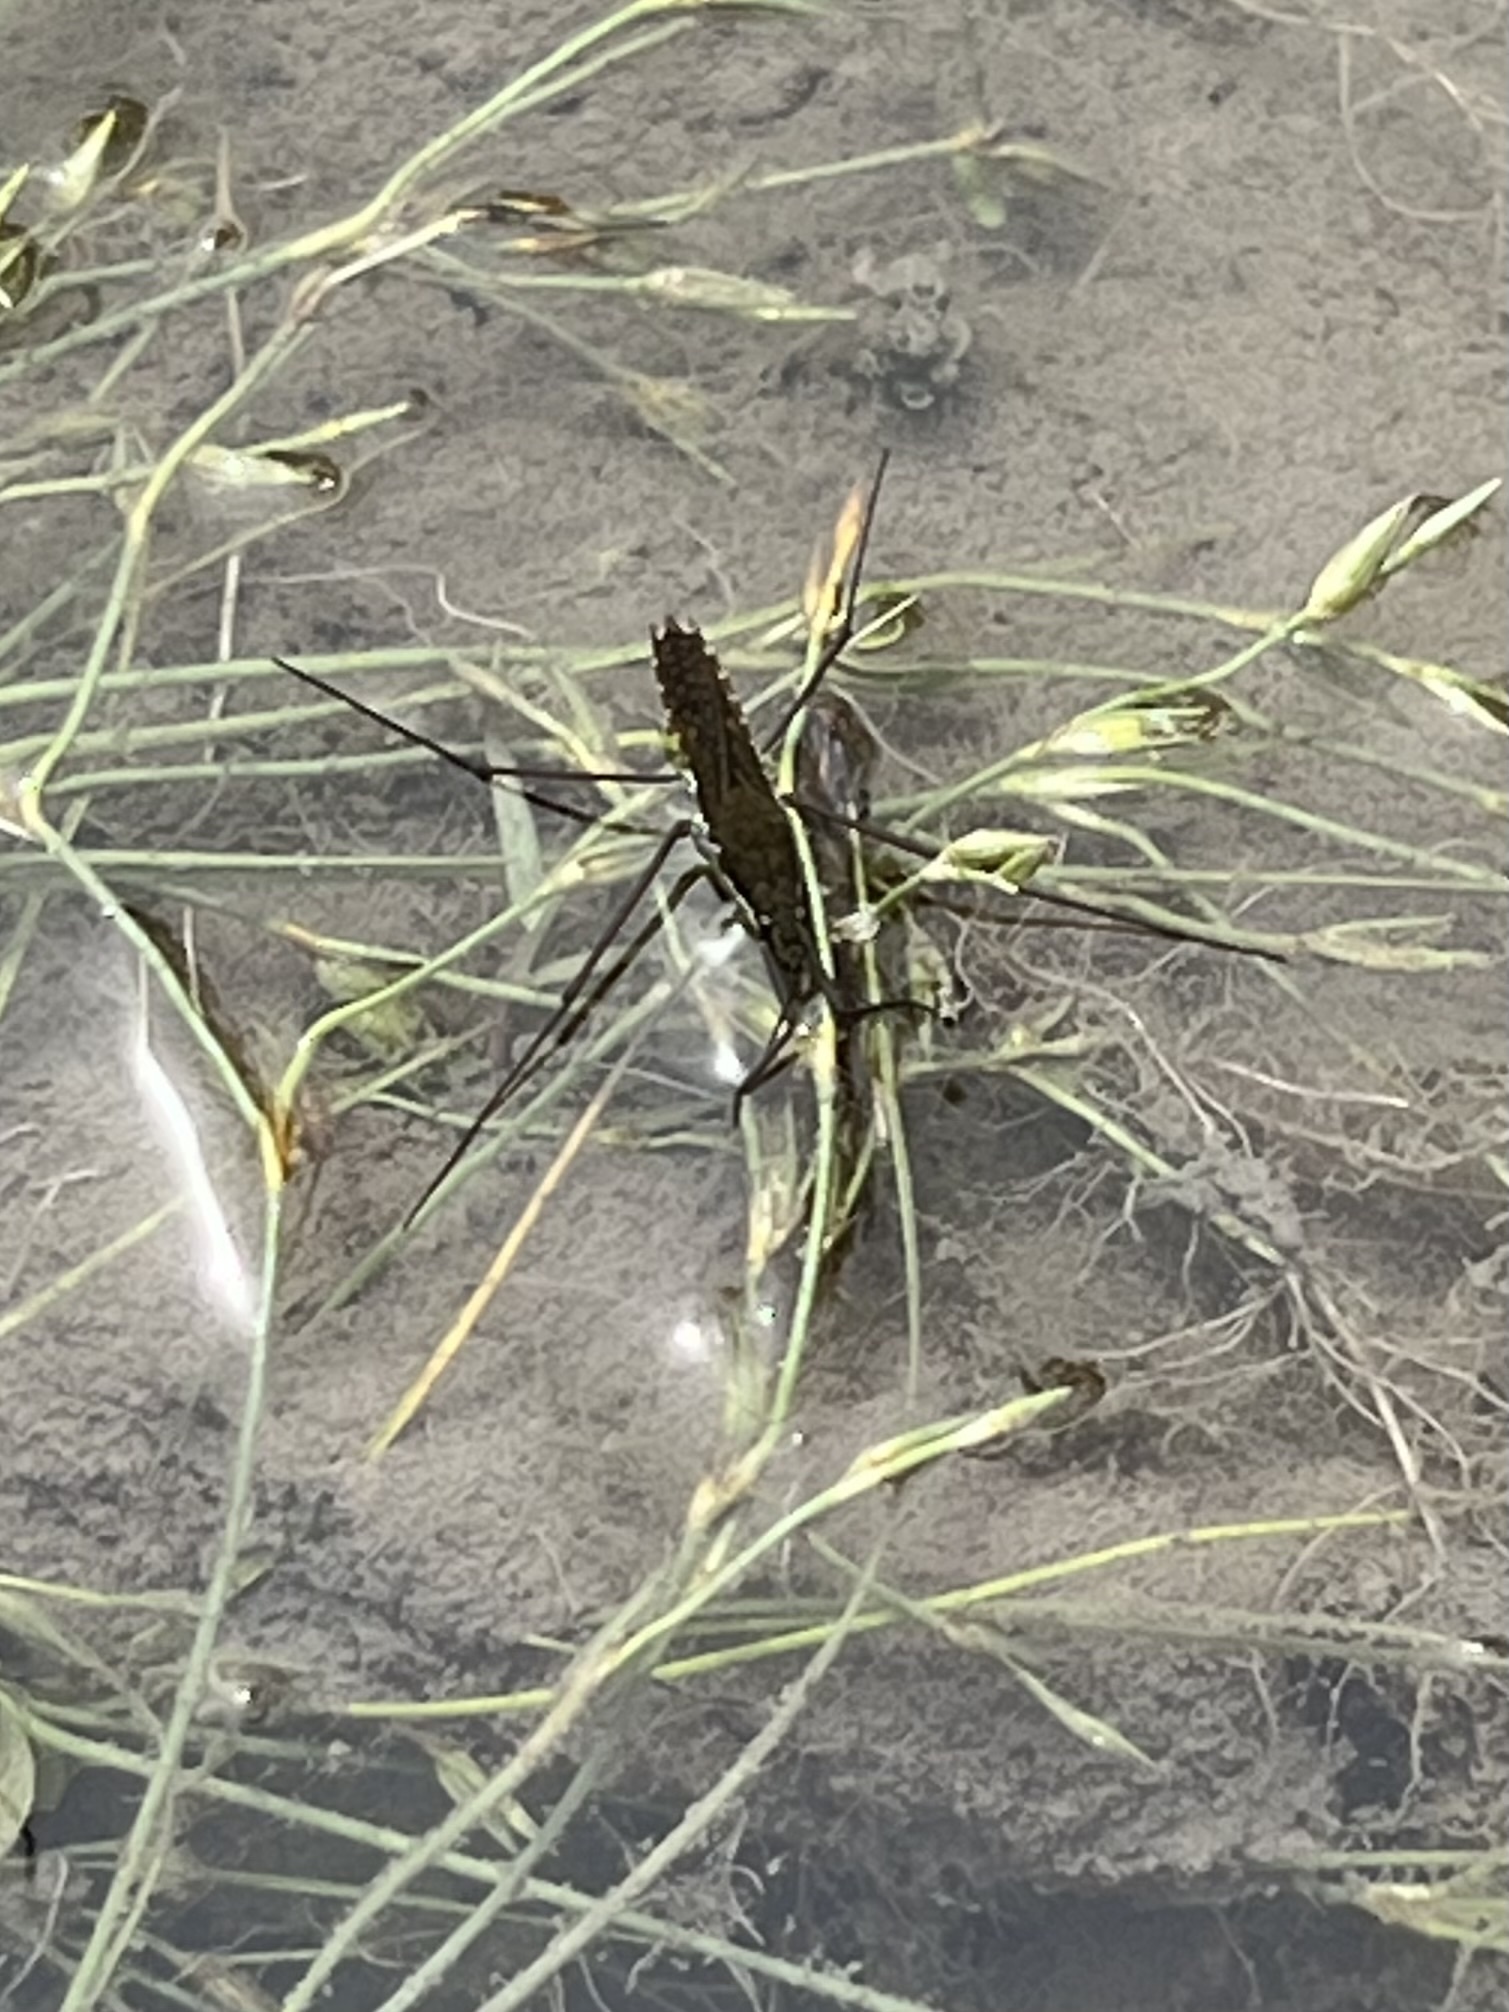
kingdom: Animalia
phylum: Arthropoda
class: Insecta
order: Hemiptera
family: Gerridae
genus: Aquarius
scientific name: Aquarius remigis
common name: Common water strider
